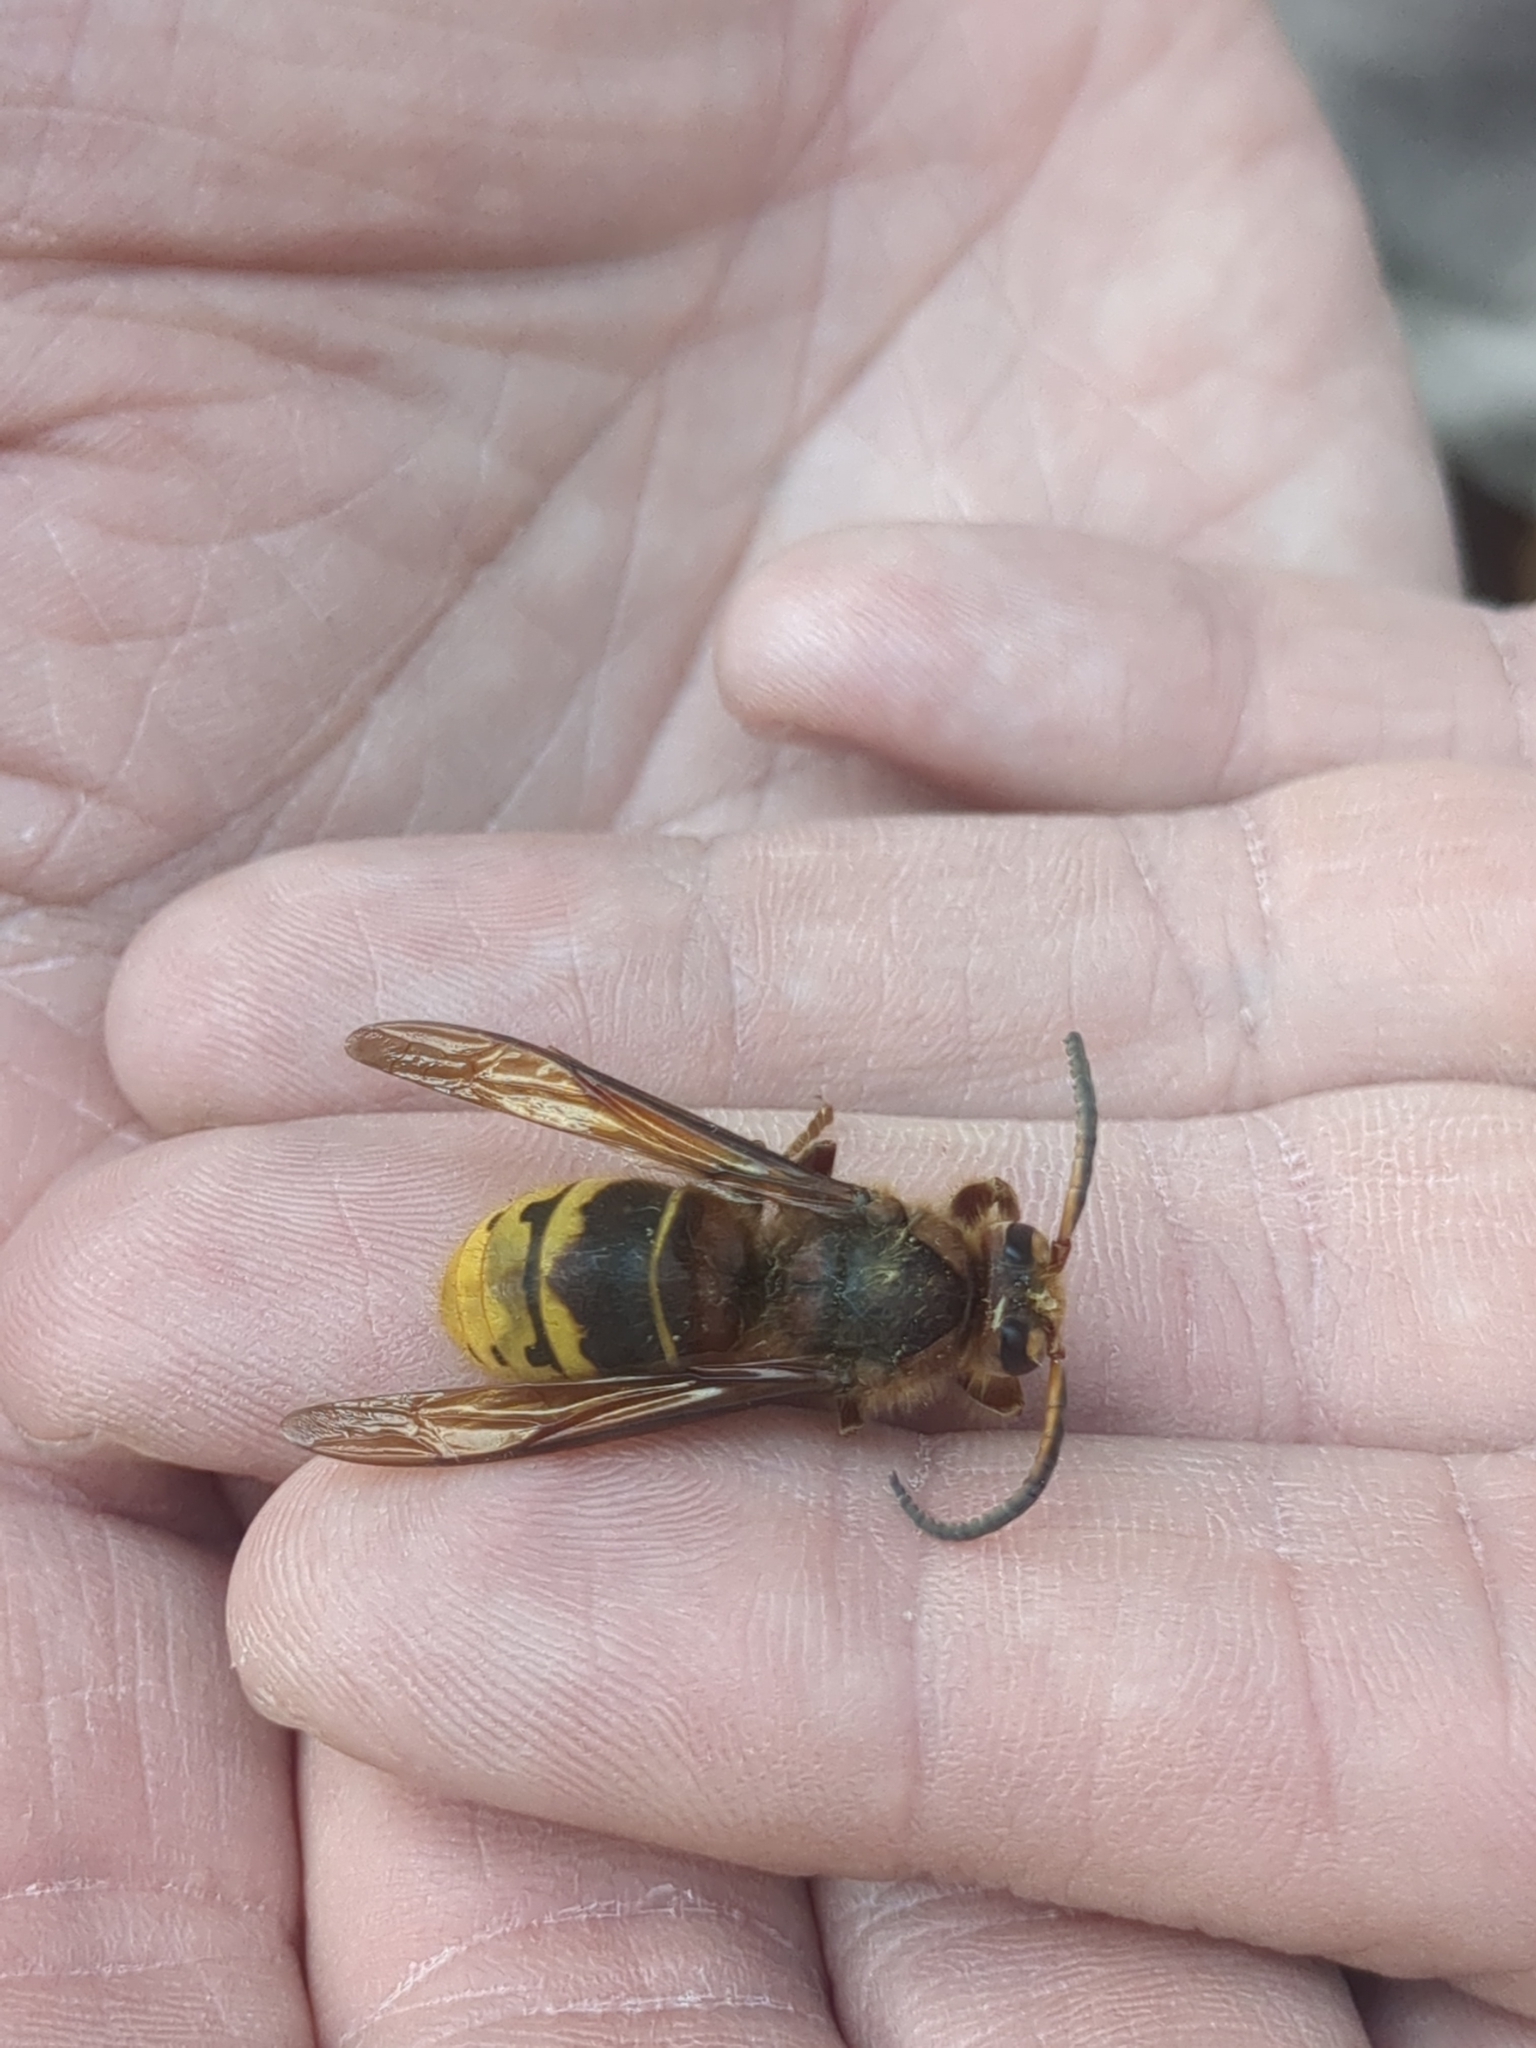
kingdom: Animalia
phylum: Arthropoda
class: Insecta
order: Hymenoptera
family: Vespidae
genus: Vespa
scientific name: Vespa crabro
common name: Hornet
